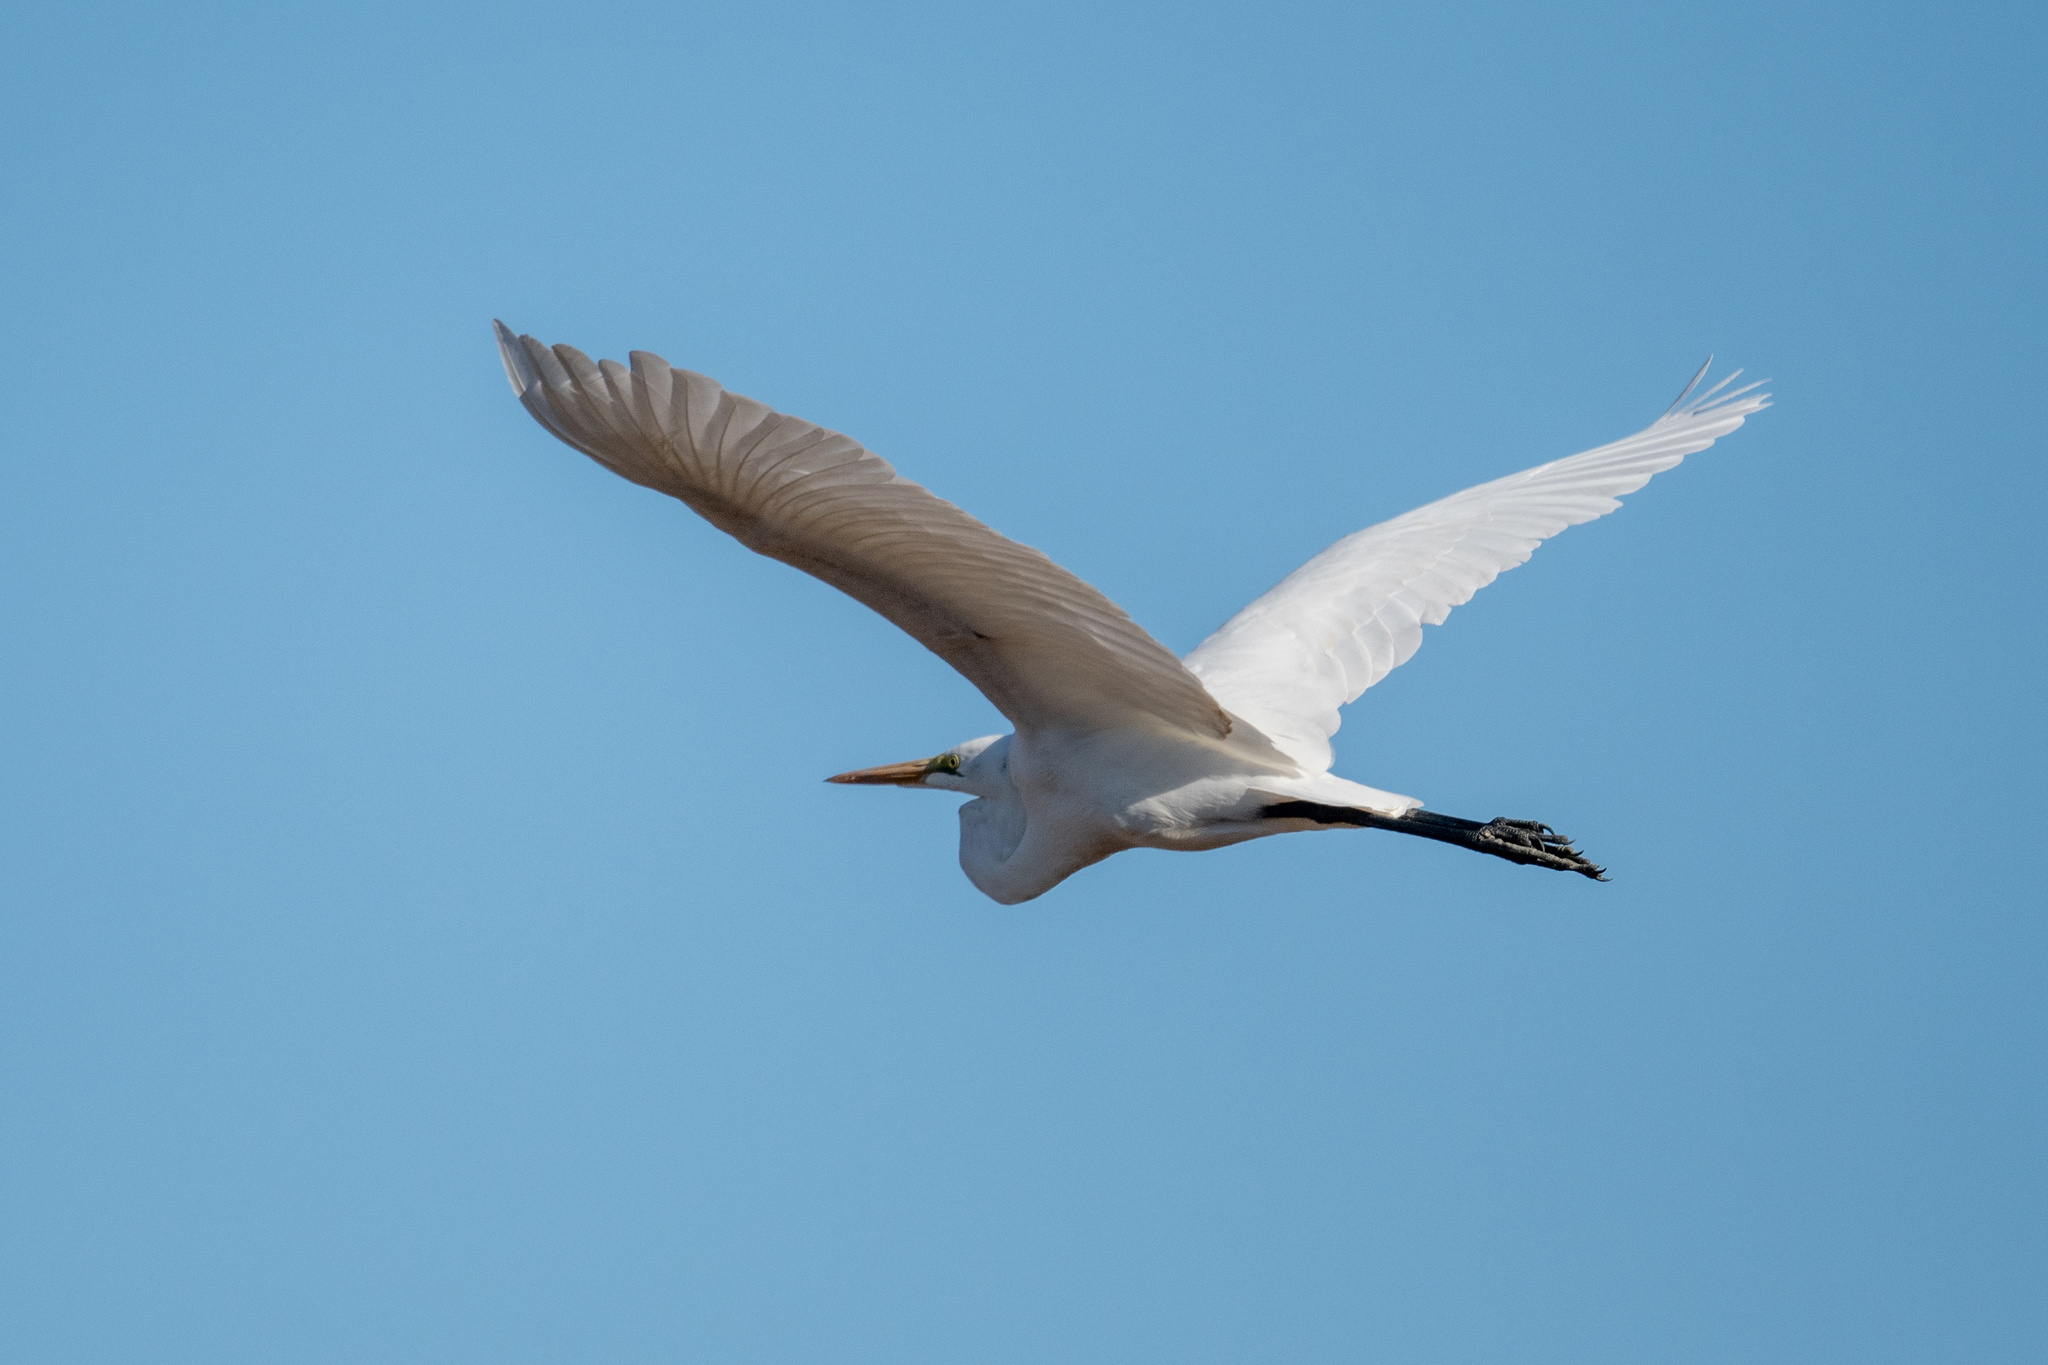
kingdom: Animalia
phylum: Chordata
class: Aves
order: Pelecaniformes
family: Ardeidae
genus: Ardea
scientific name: Ardea alba
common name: Great egret
